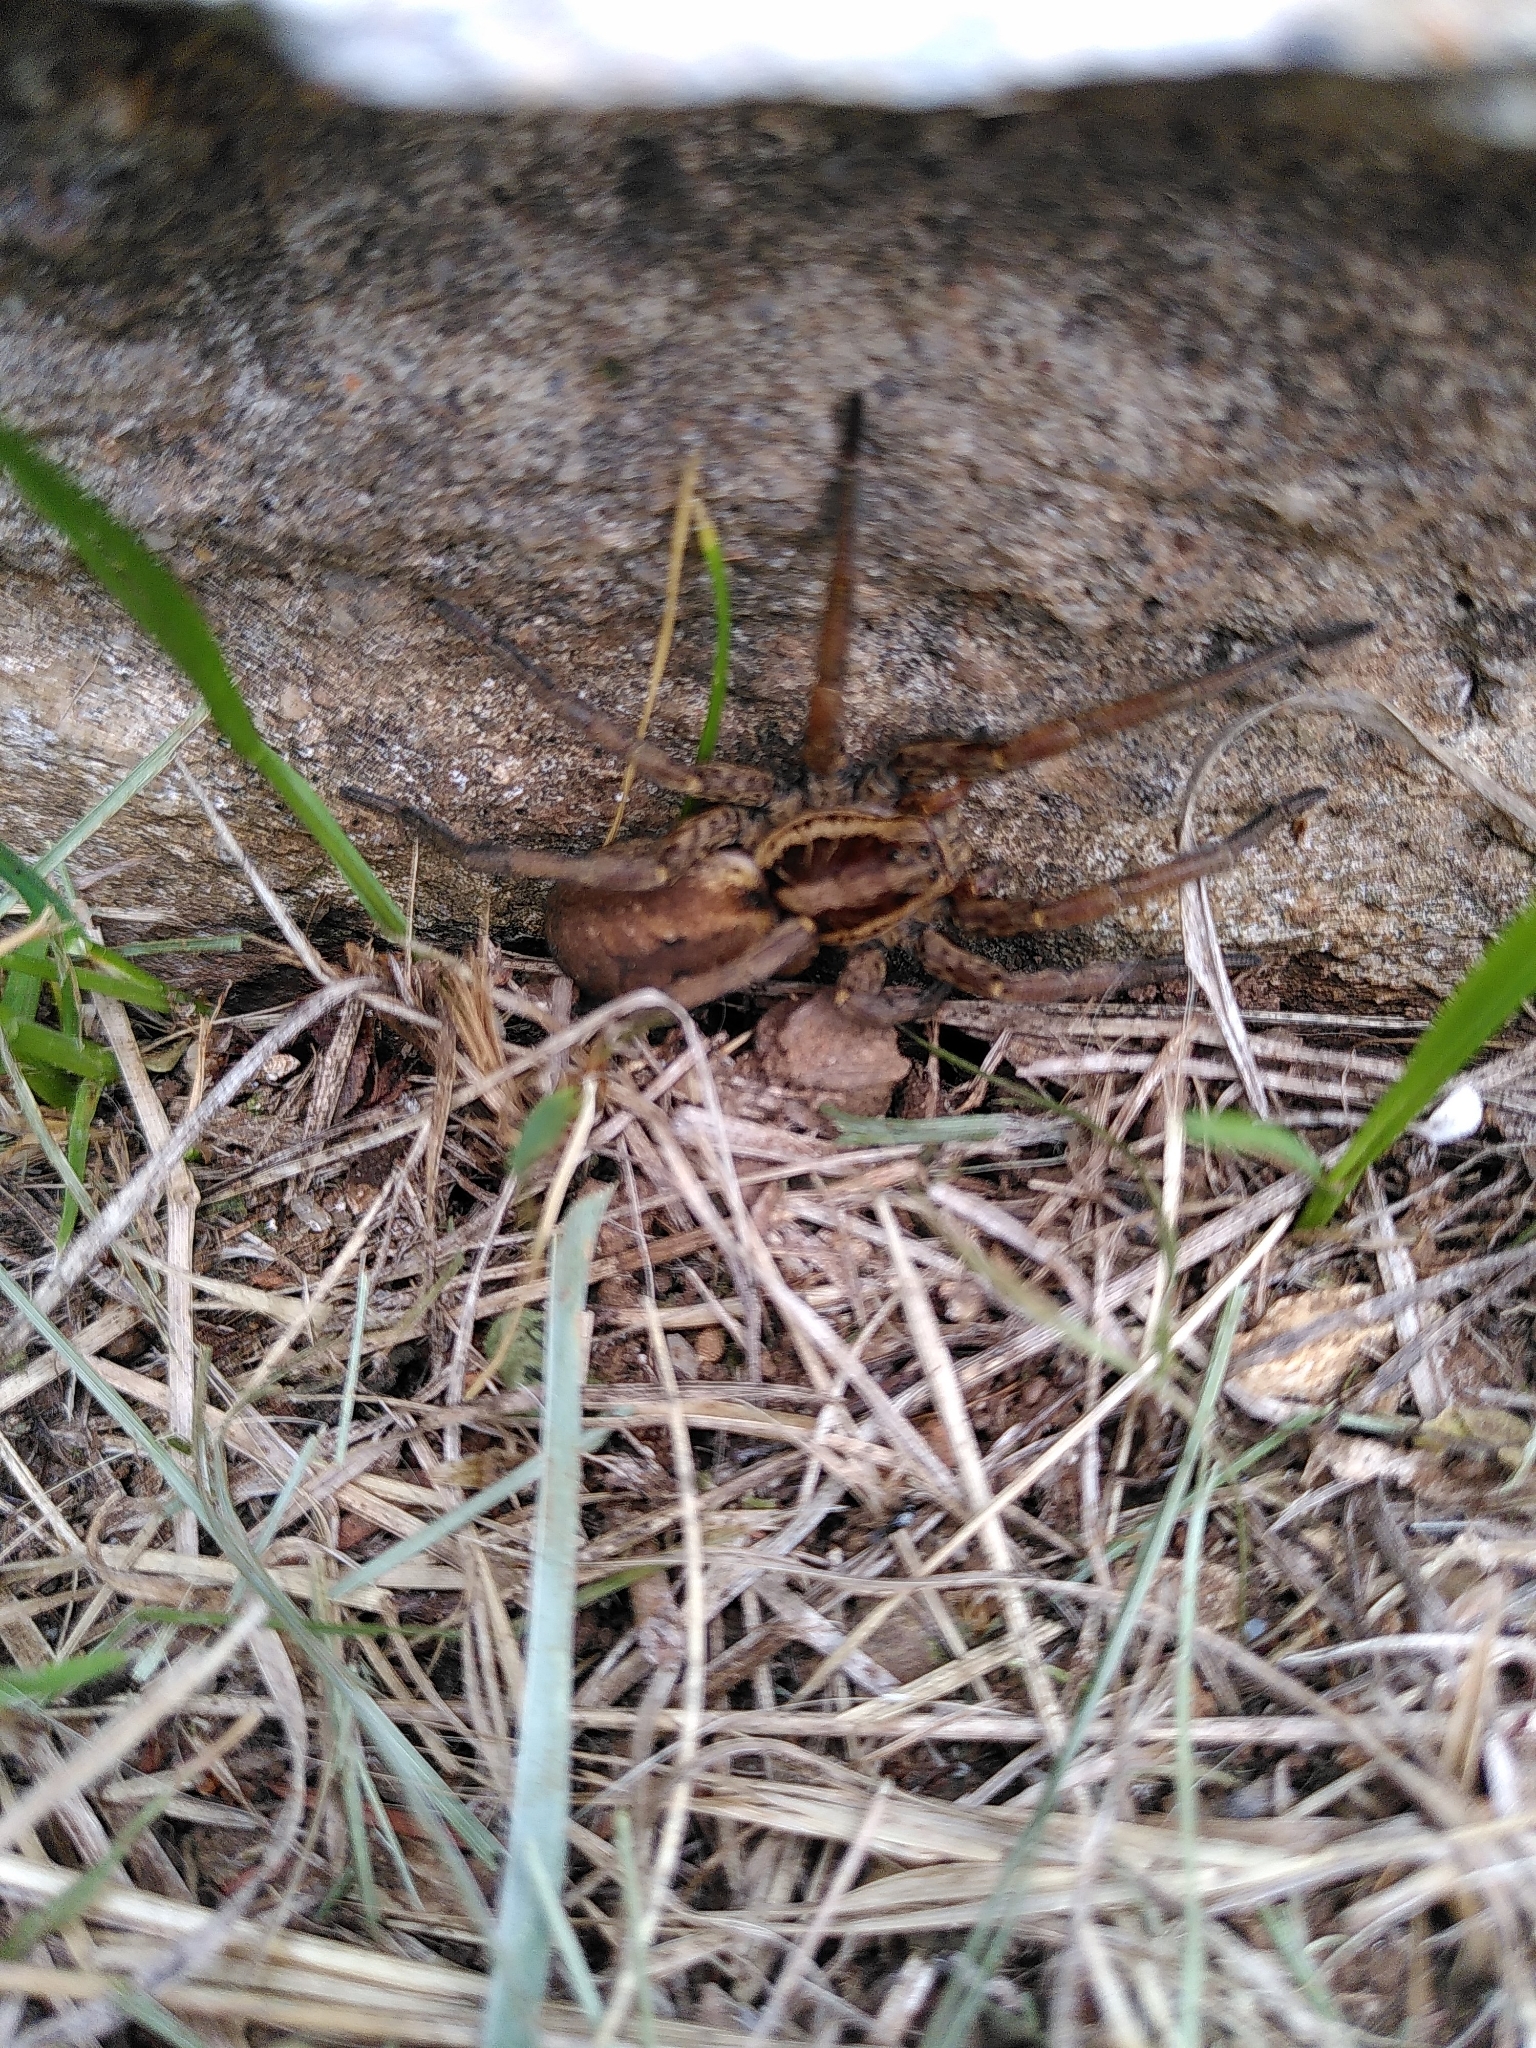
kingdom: Animalia
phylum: Arthropoda
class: Arachnida
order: Araneae
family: Lycosidae
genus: Hogna
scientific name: Hogna radiata
